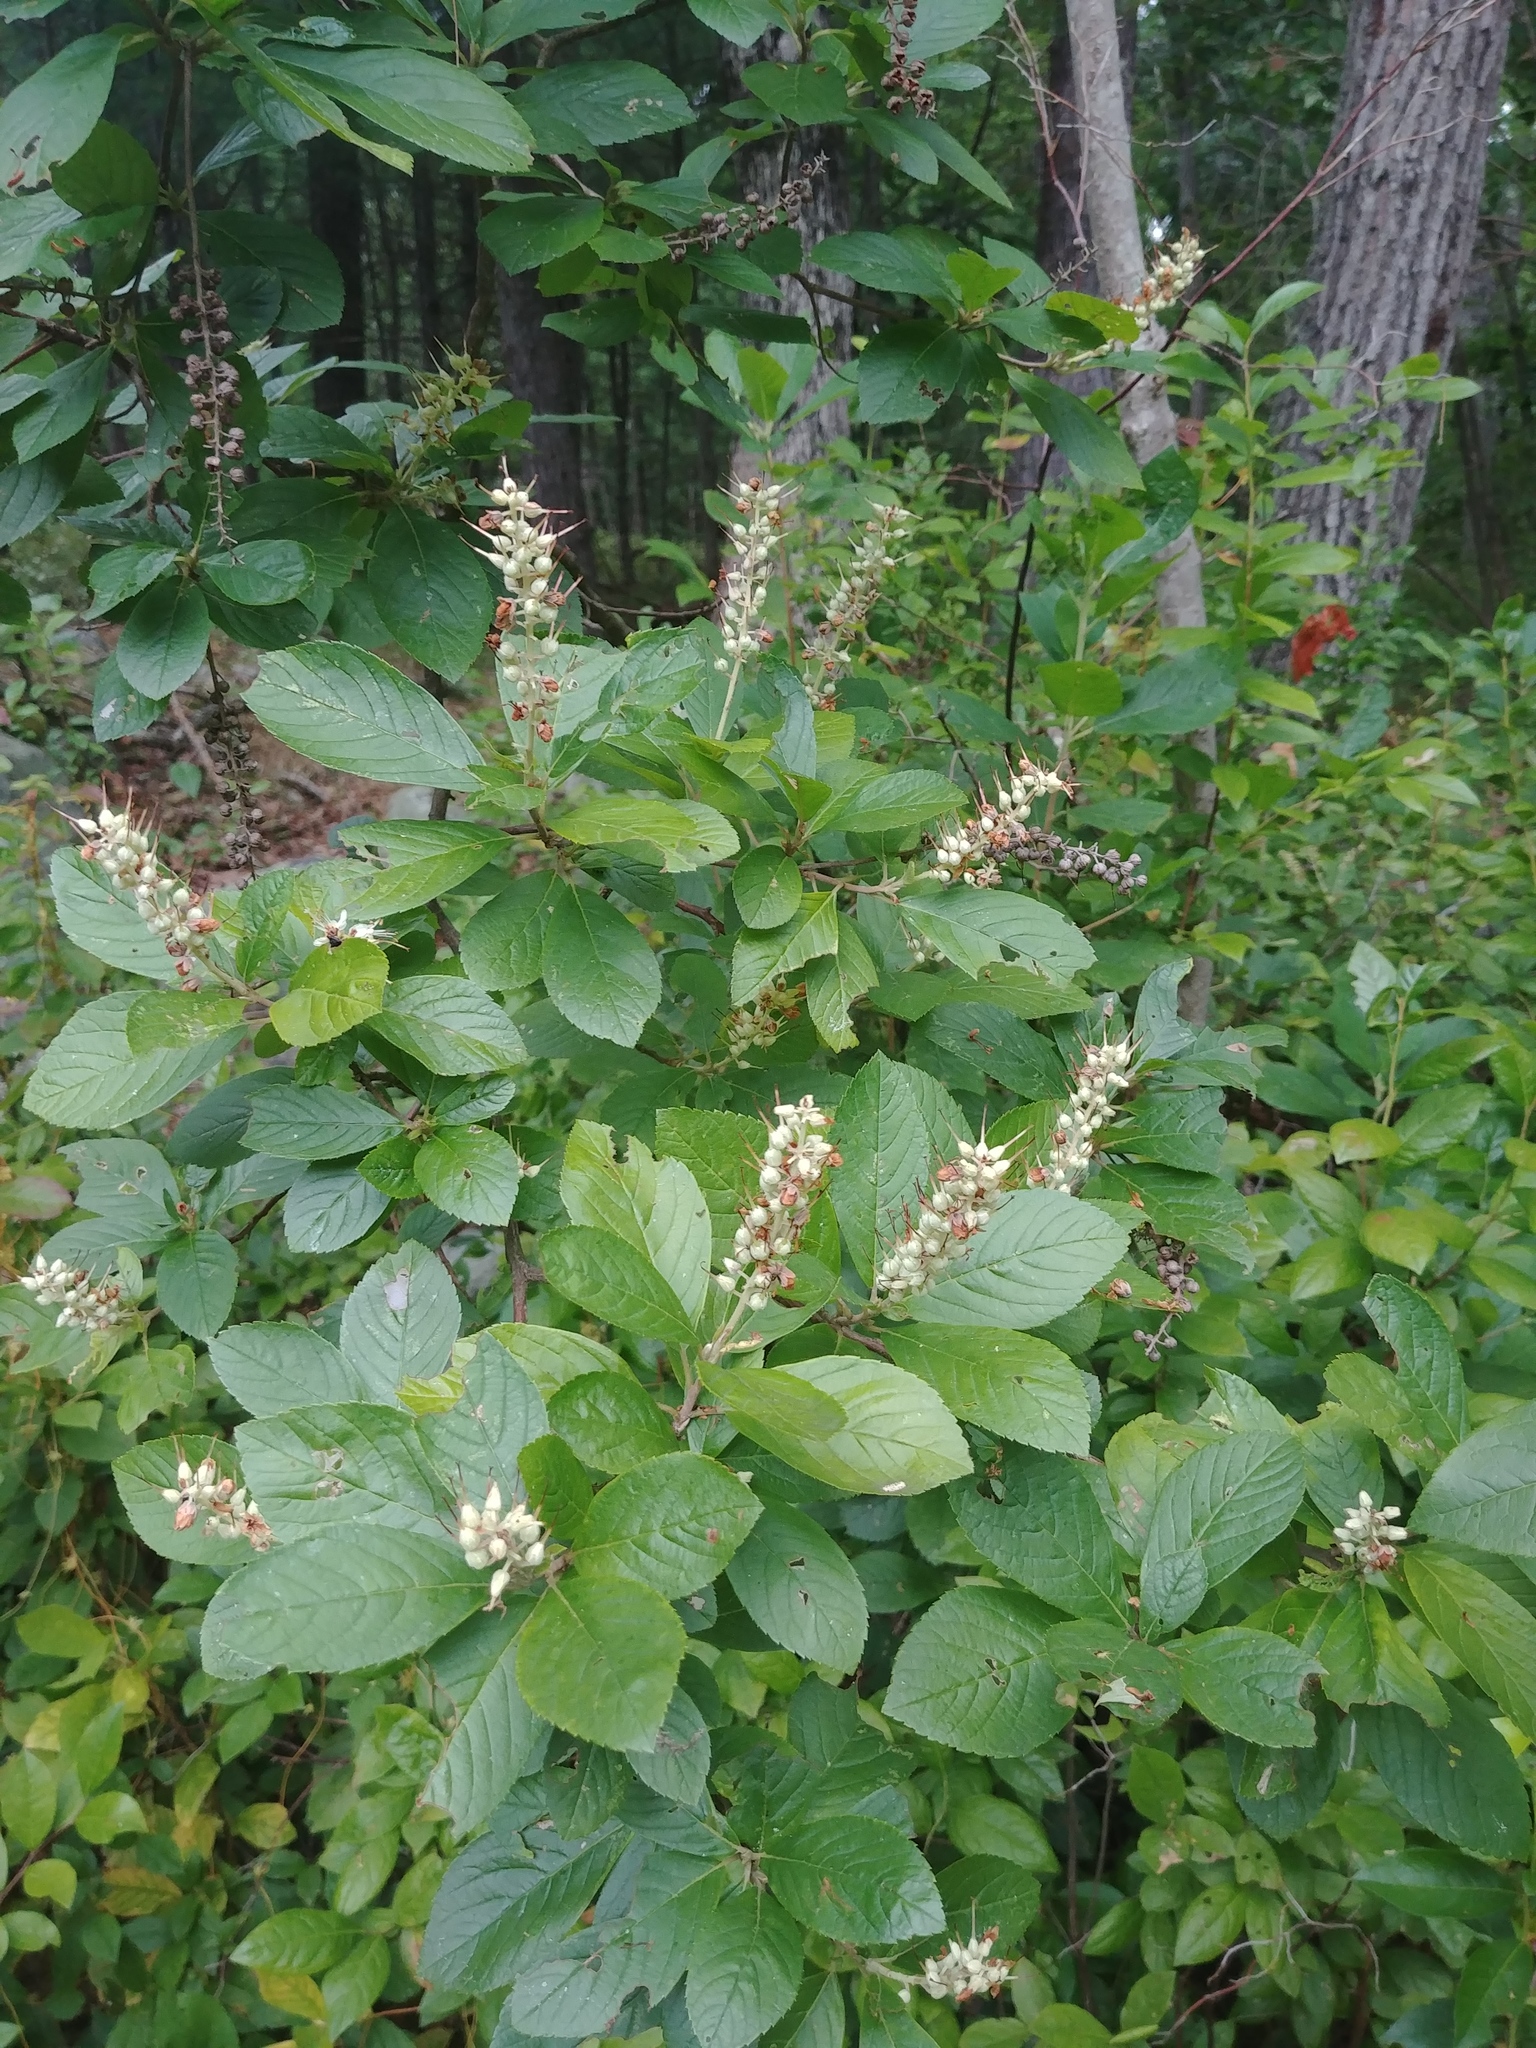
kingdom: Plantae
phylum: Tracheophyta
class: Magnoliopsida
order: Ericales
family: Clethraceae
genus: Clethra
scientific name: Clethra alnifolia
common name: Sweet pepperbush
